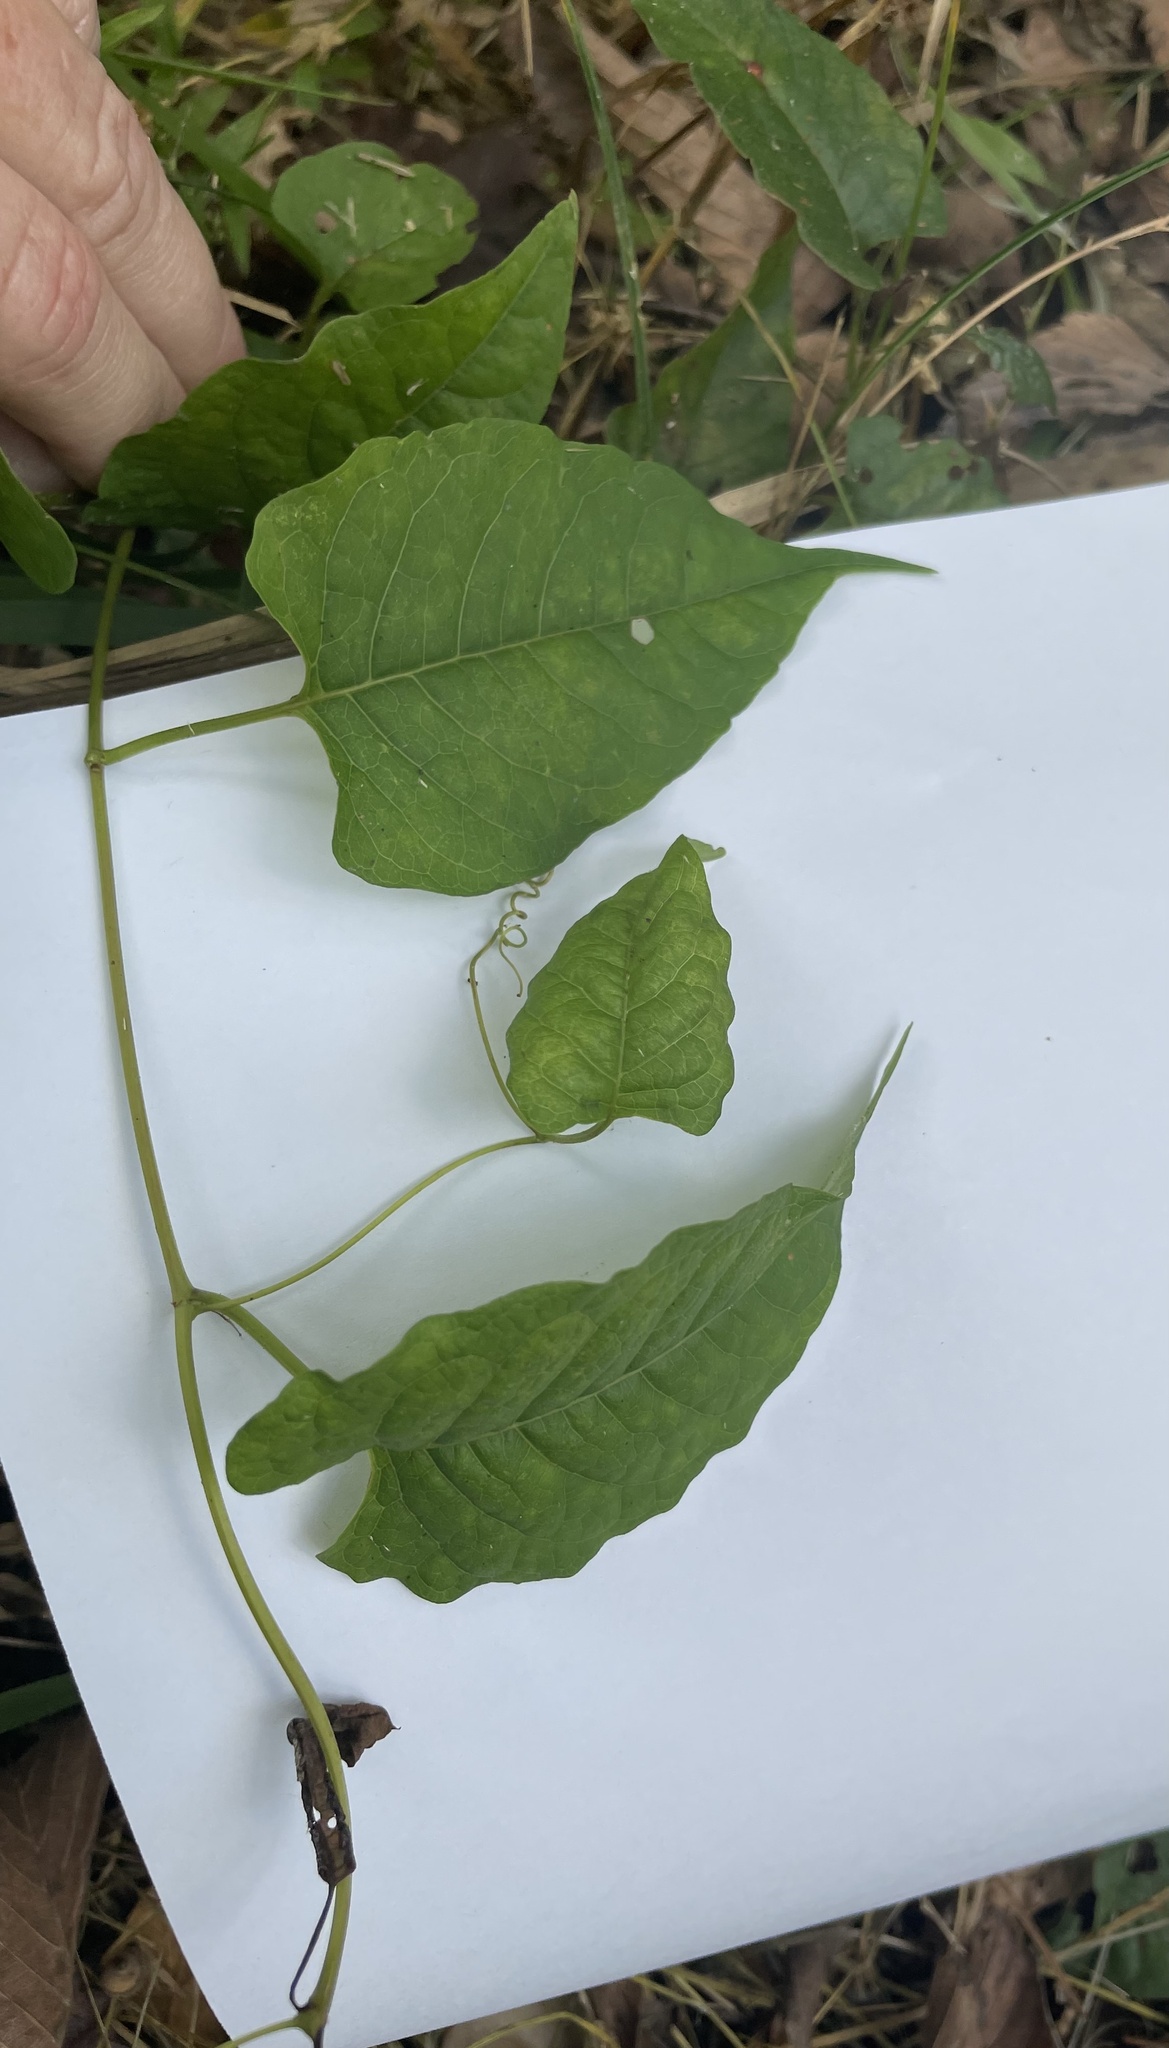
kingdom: Plantae
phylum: Tracheophyta
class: Magnoliopsida
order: Caryophyllales
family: Polygonaceae
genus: Brunnichia
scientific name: Brunnichia ovata
